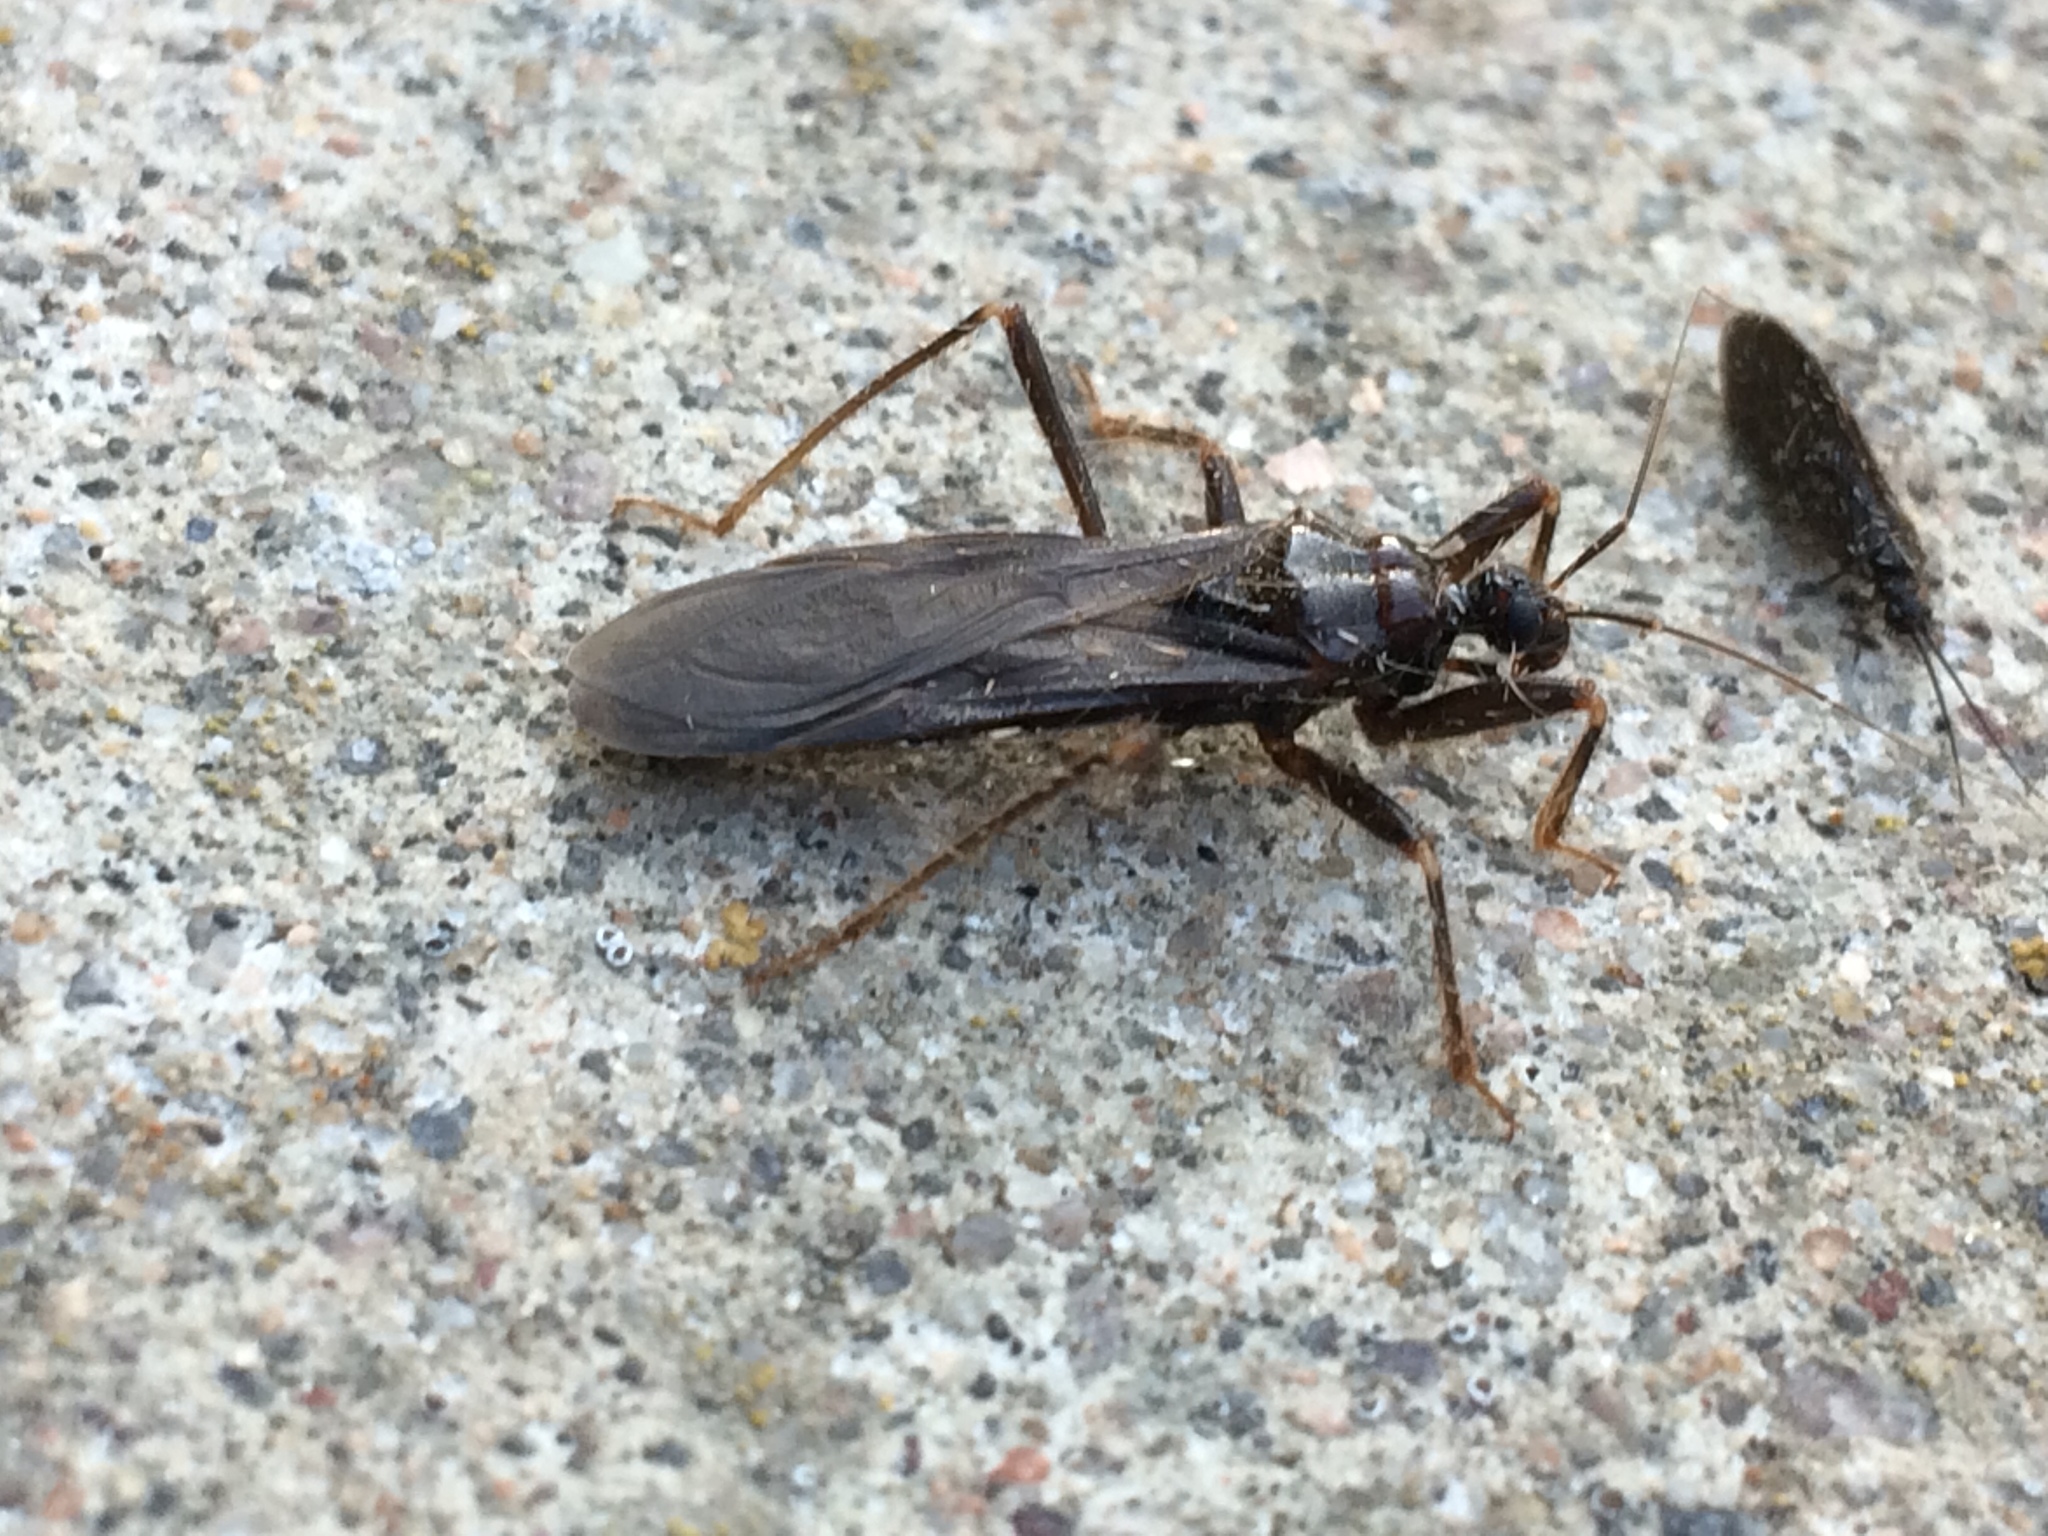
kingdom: Animalia
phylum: Arthropoda
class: Insecta
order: Hemiptera
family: Reduviidae
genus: Reduvius
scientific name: Reduvius personatus
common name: Masked hunter
